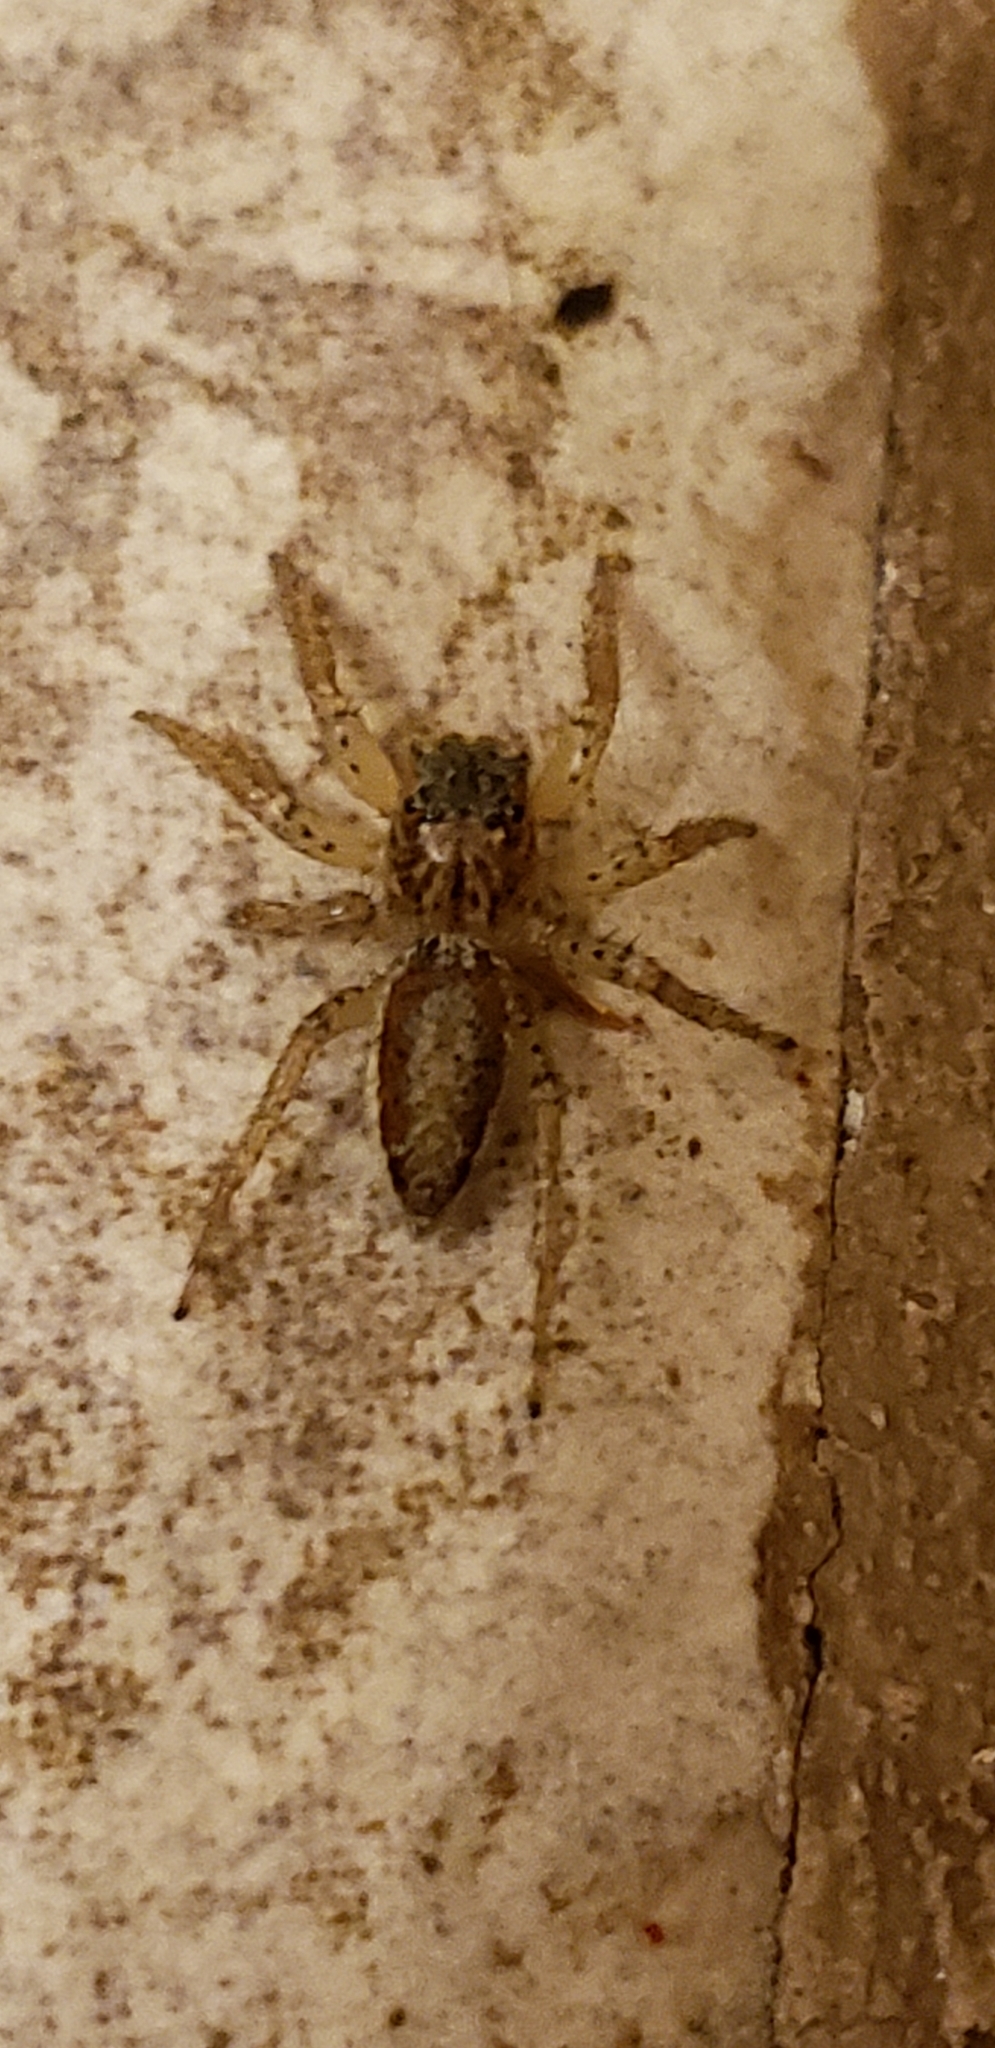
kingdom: Animalia
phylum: Arthropoda
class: Arachnida
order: Araneae
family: Salticidae
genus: Maevia
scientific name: Maevia inclemens
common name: Dimorphic jumper
